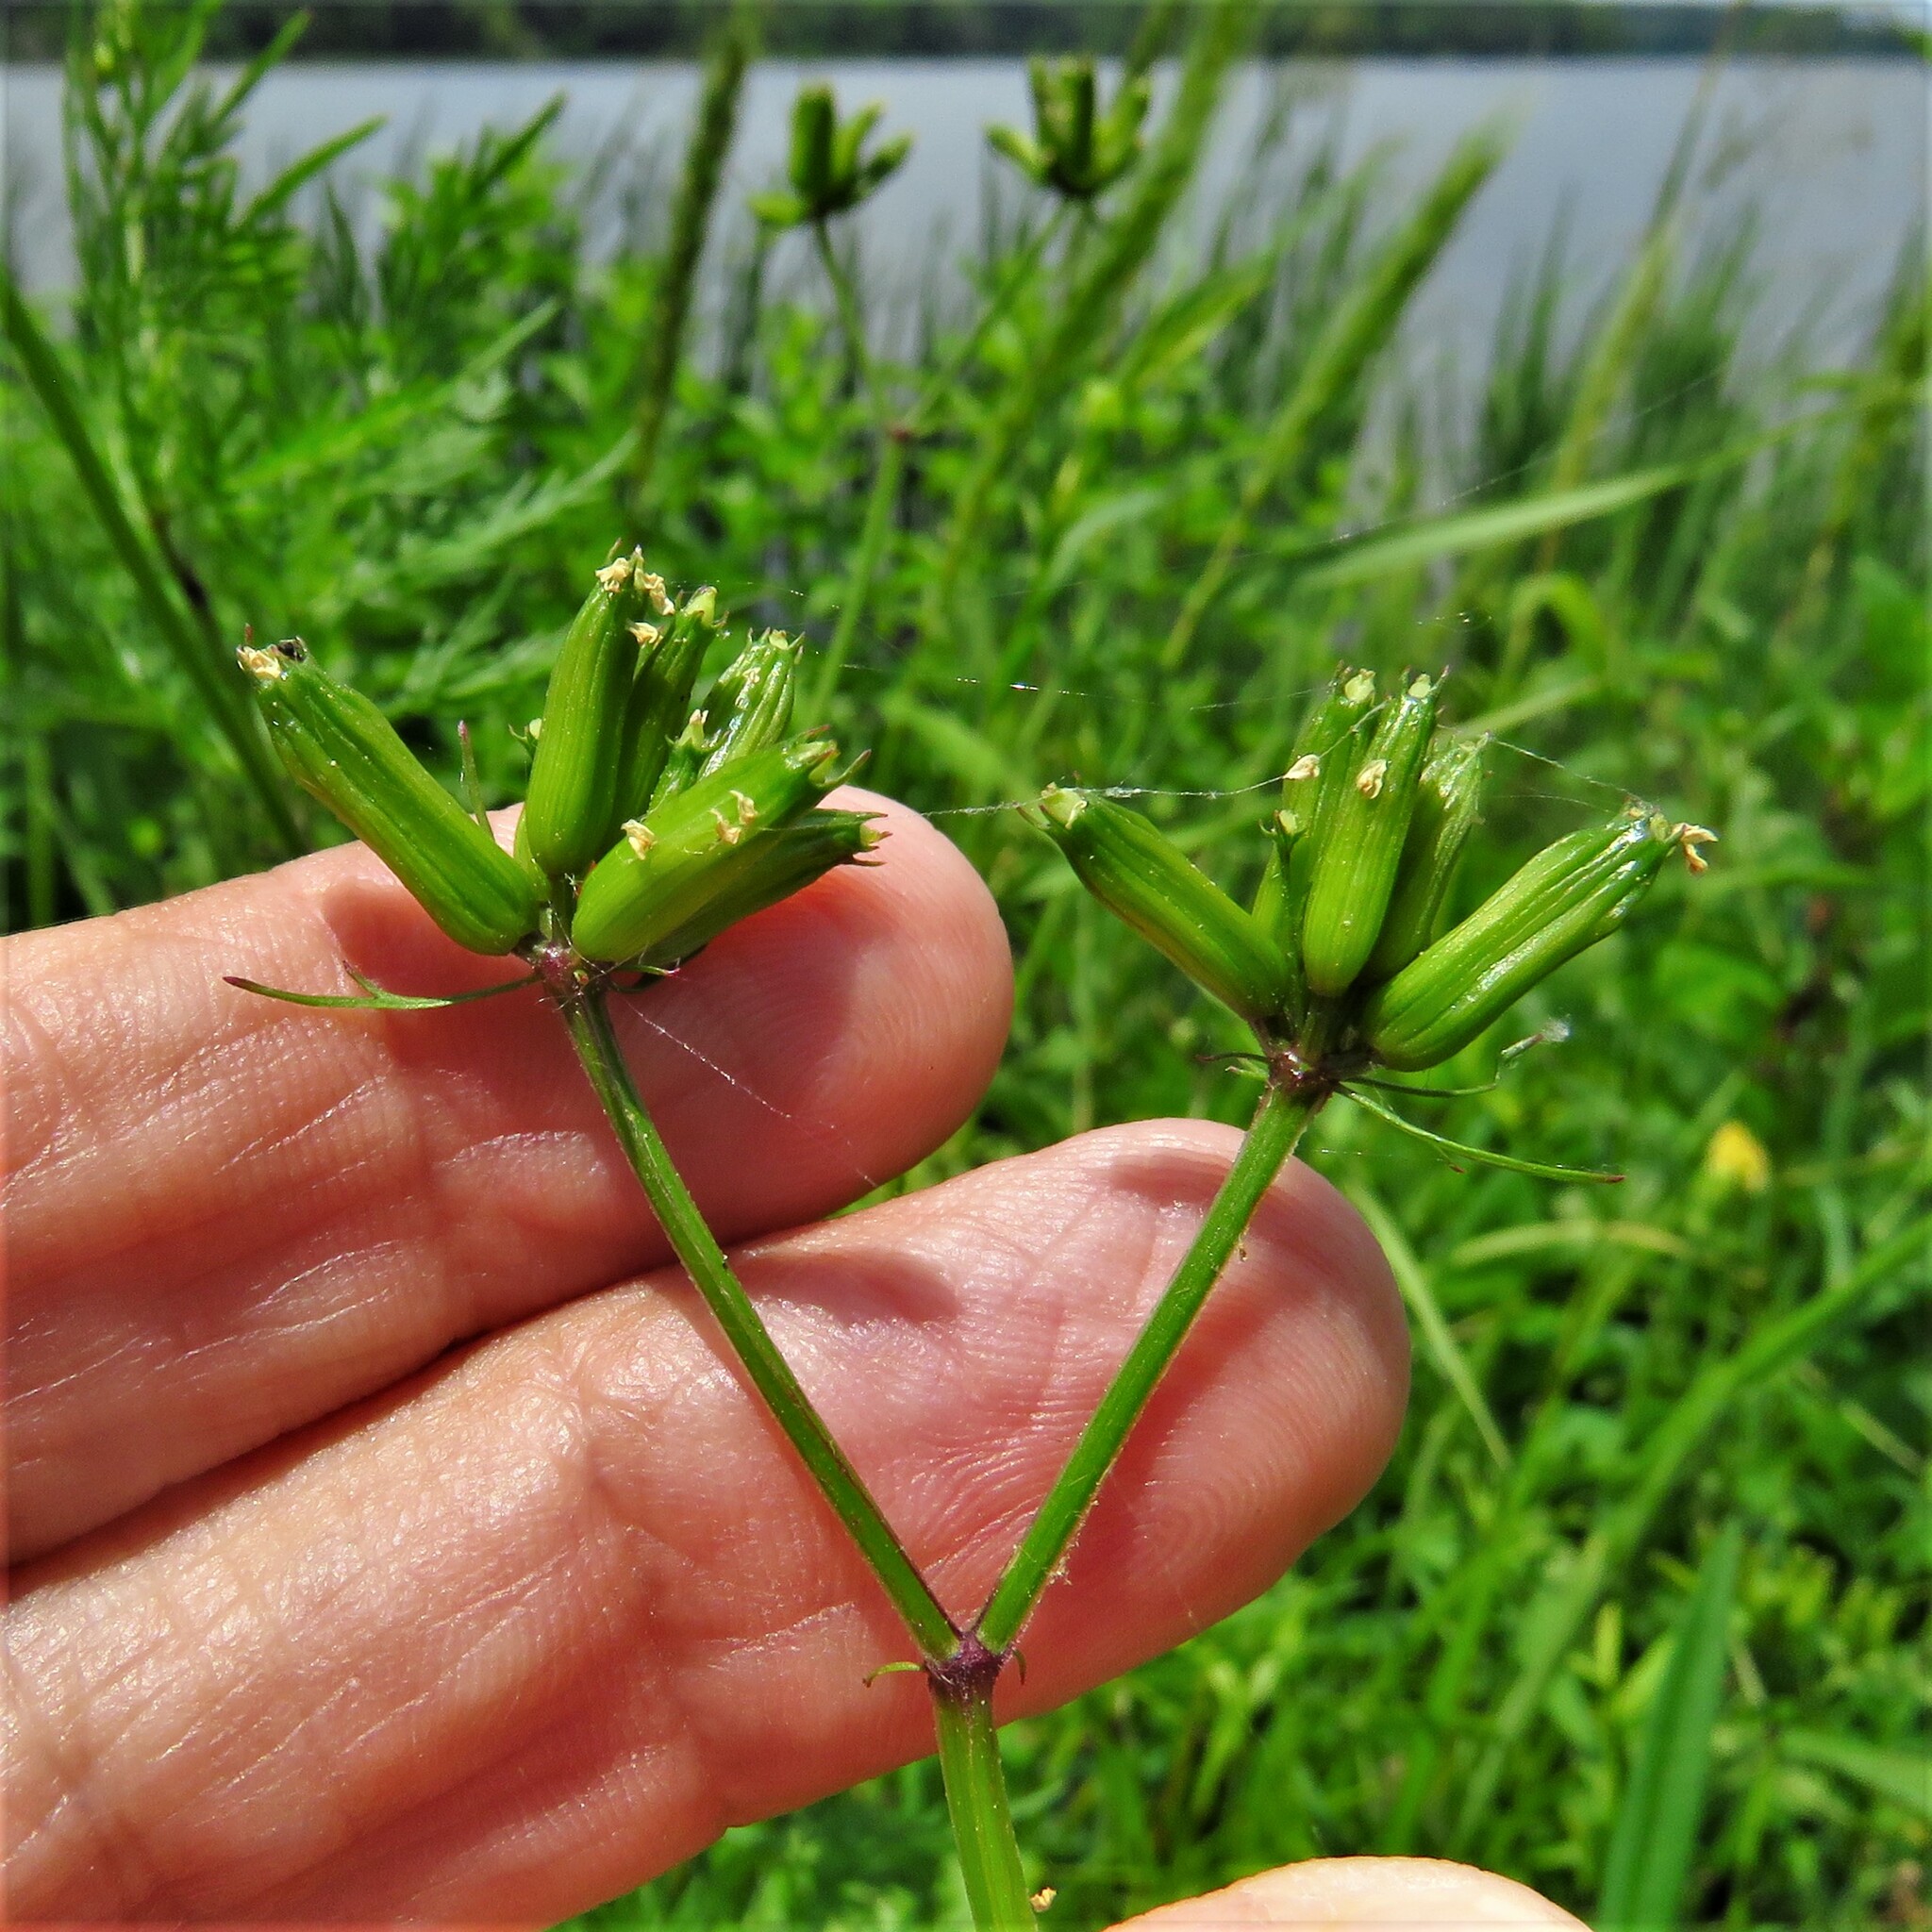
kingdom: Plantae
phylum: Tracheophyta
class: Magnoliopsida
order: Apiales
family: Apiaceae
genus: Trepocarpus
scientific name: Trepocarpus aethusae
